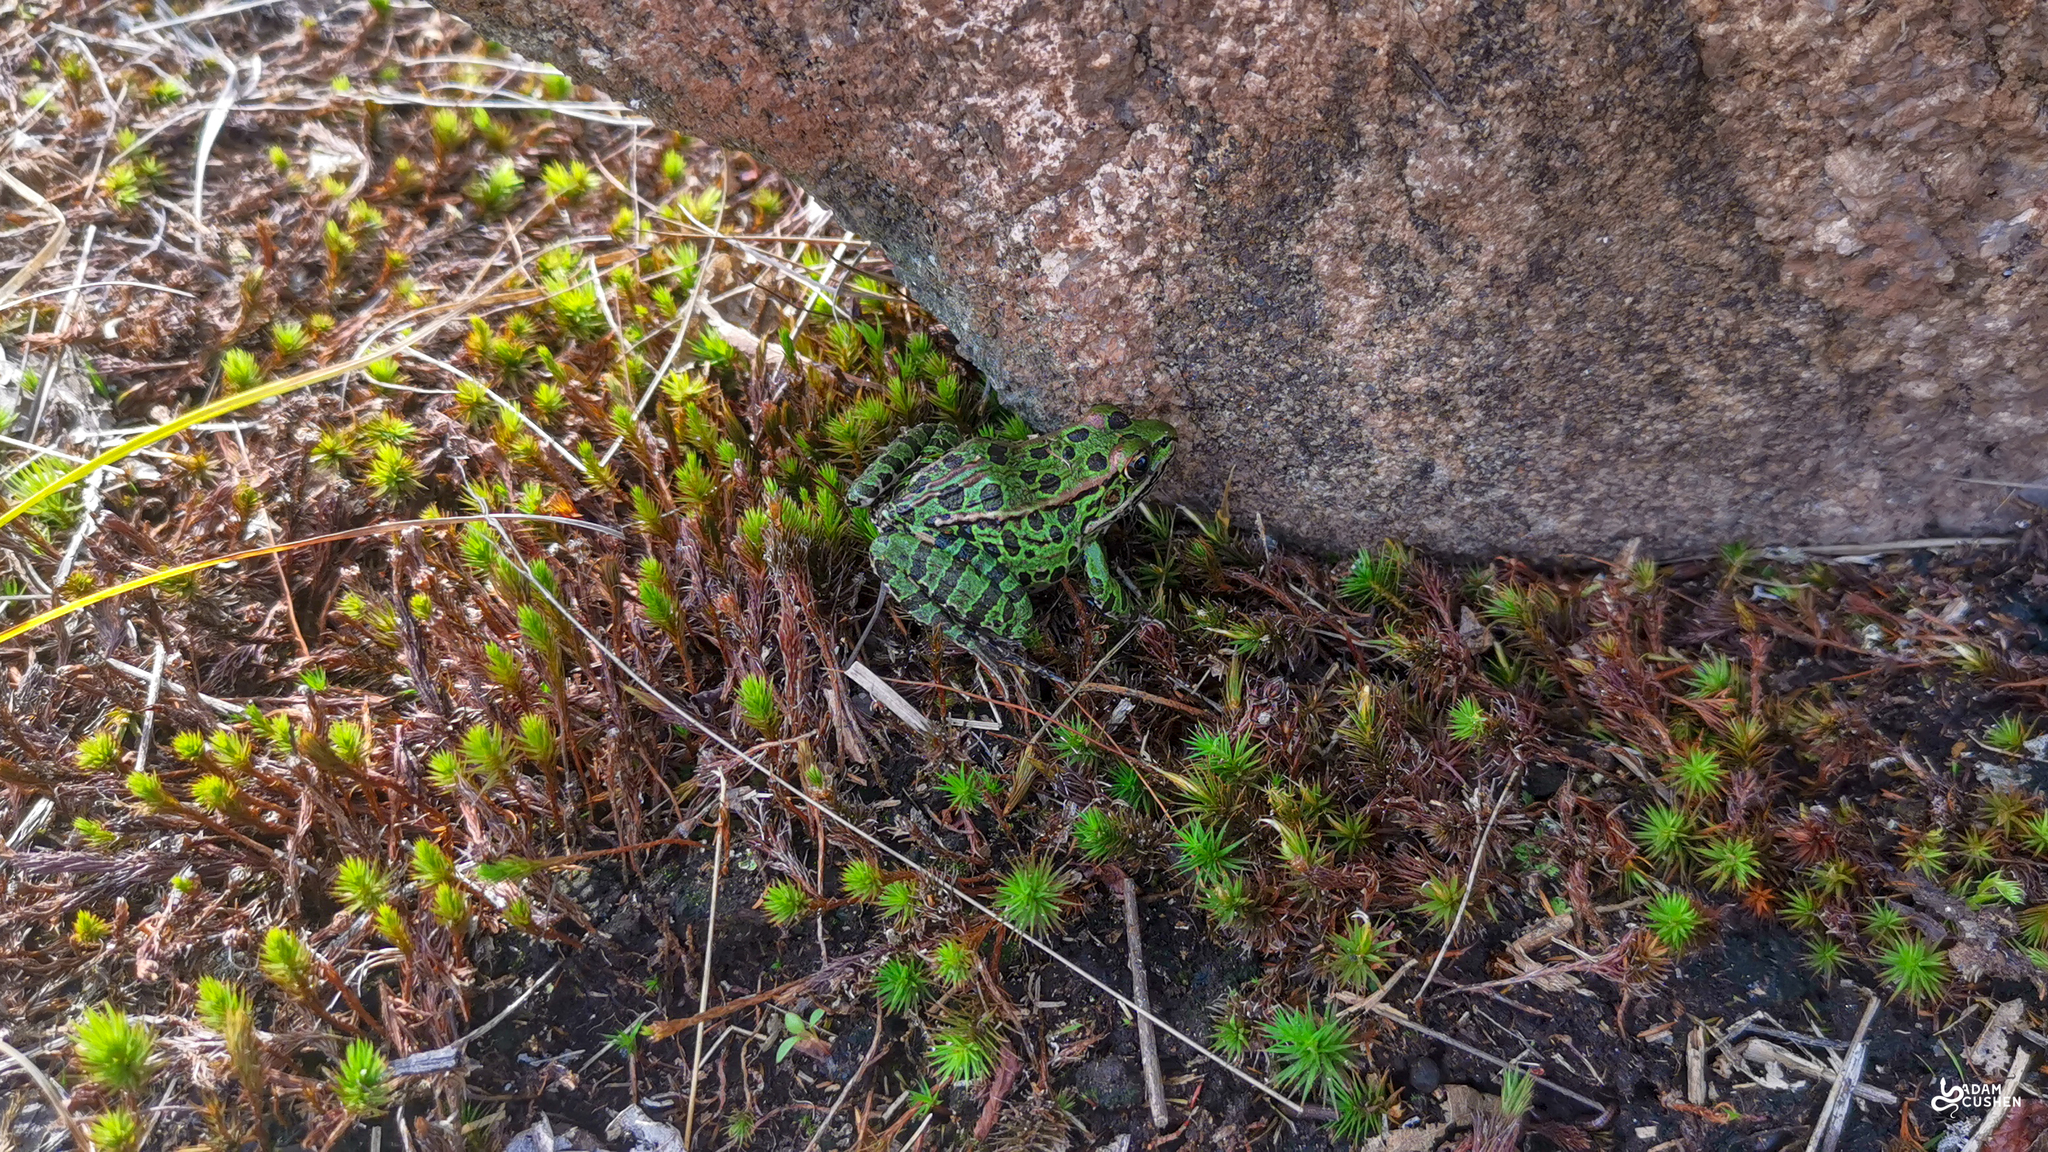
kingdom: Animalia
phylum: Chordata
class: Amphibia
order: Anura
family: Ranidae
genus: Lithobates
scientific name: Lithobates pipiens
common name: Northern leopard frog
